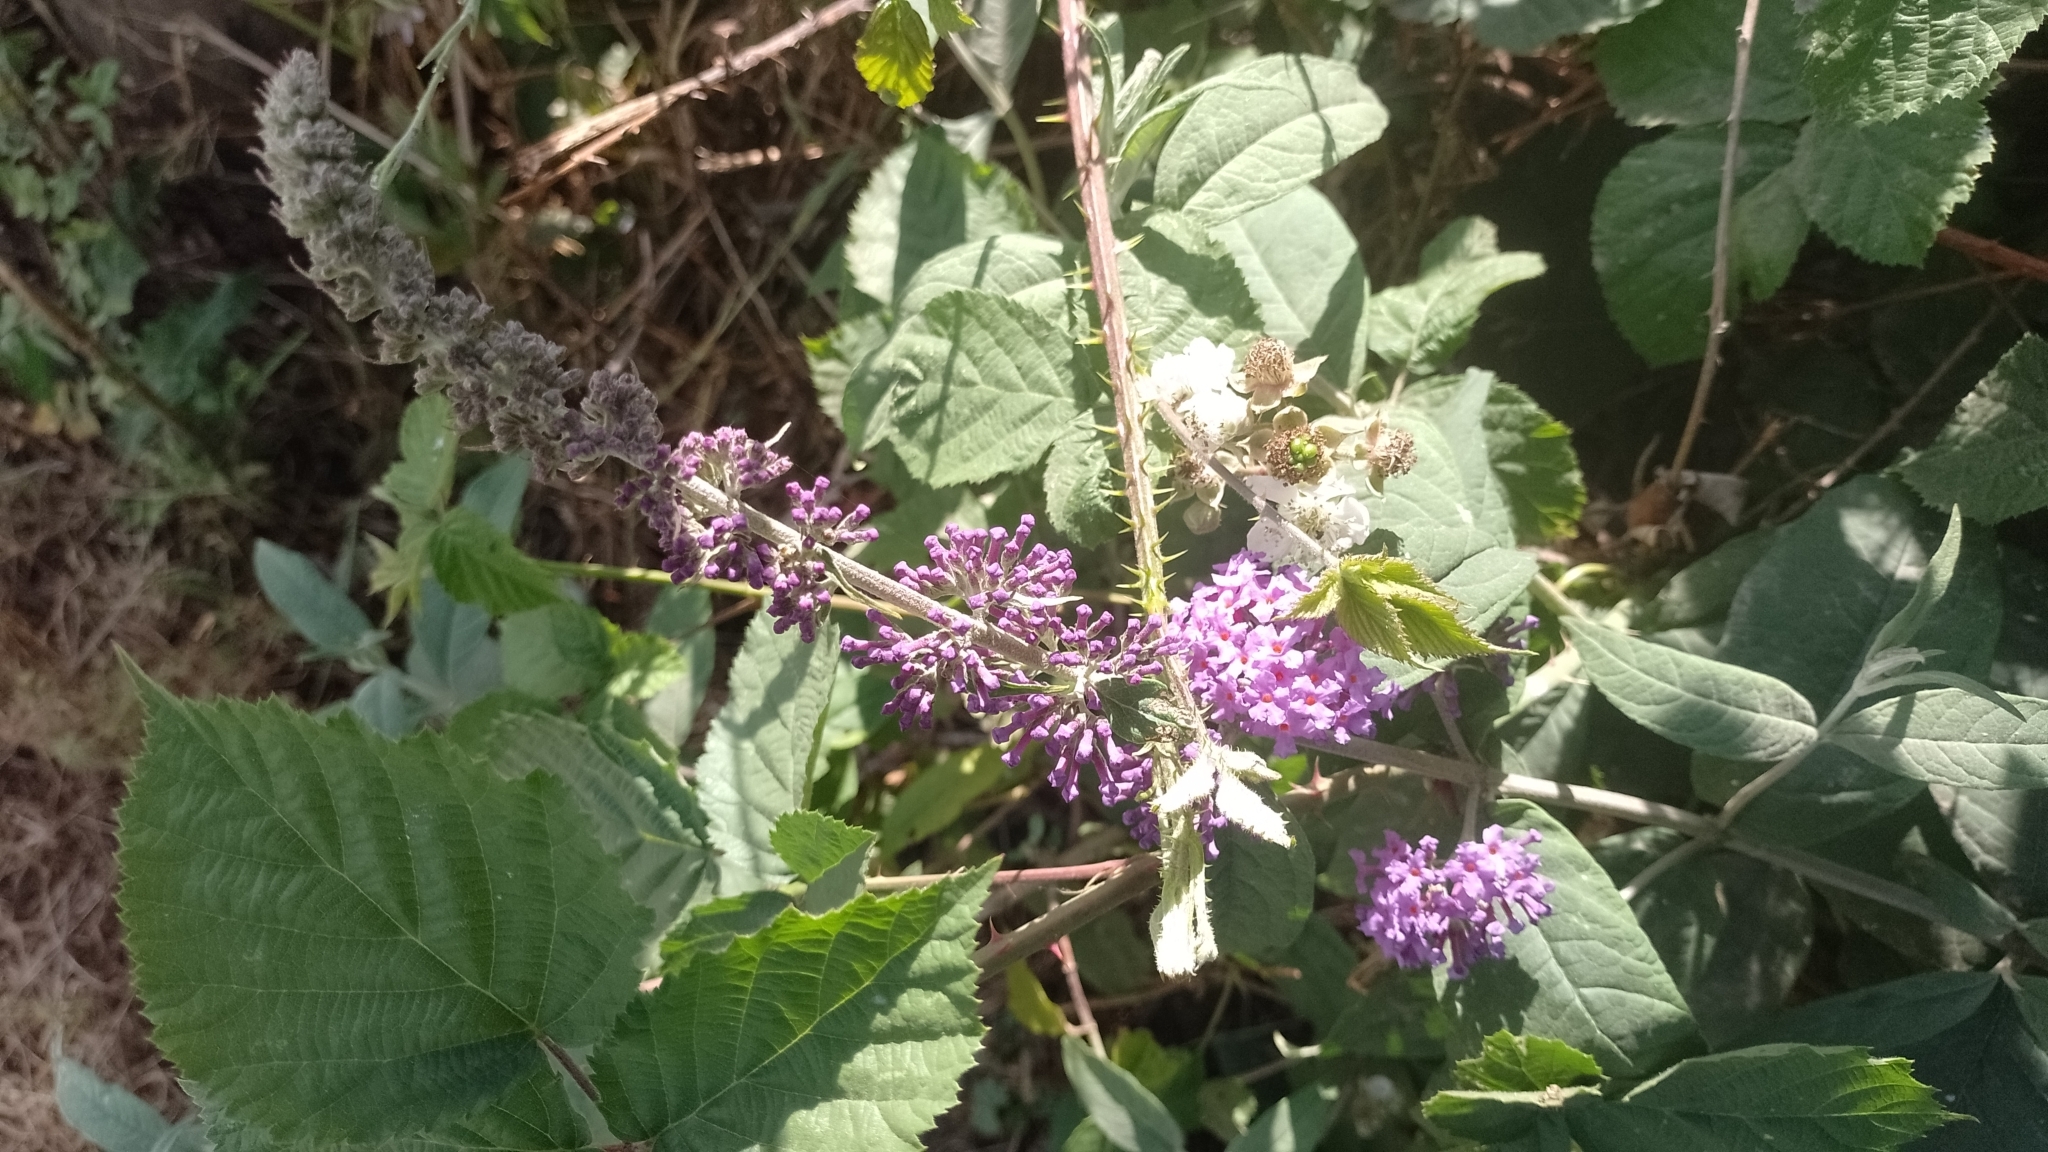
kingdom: Plantae
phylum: Tracheophyta
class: Magnoliopsida
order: Lamiales
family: Scrophulariaceae
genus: Buddleja
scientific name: Buddleja davidii
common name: Butterfly-bush
